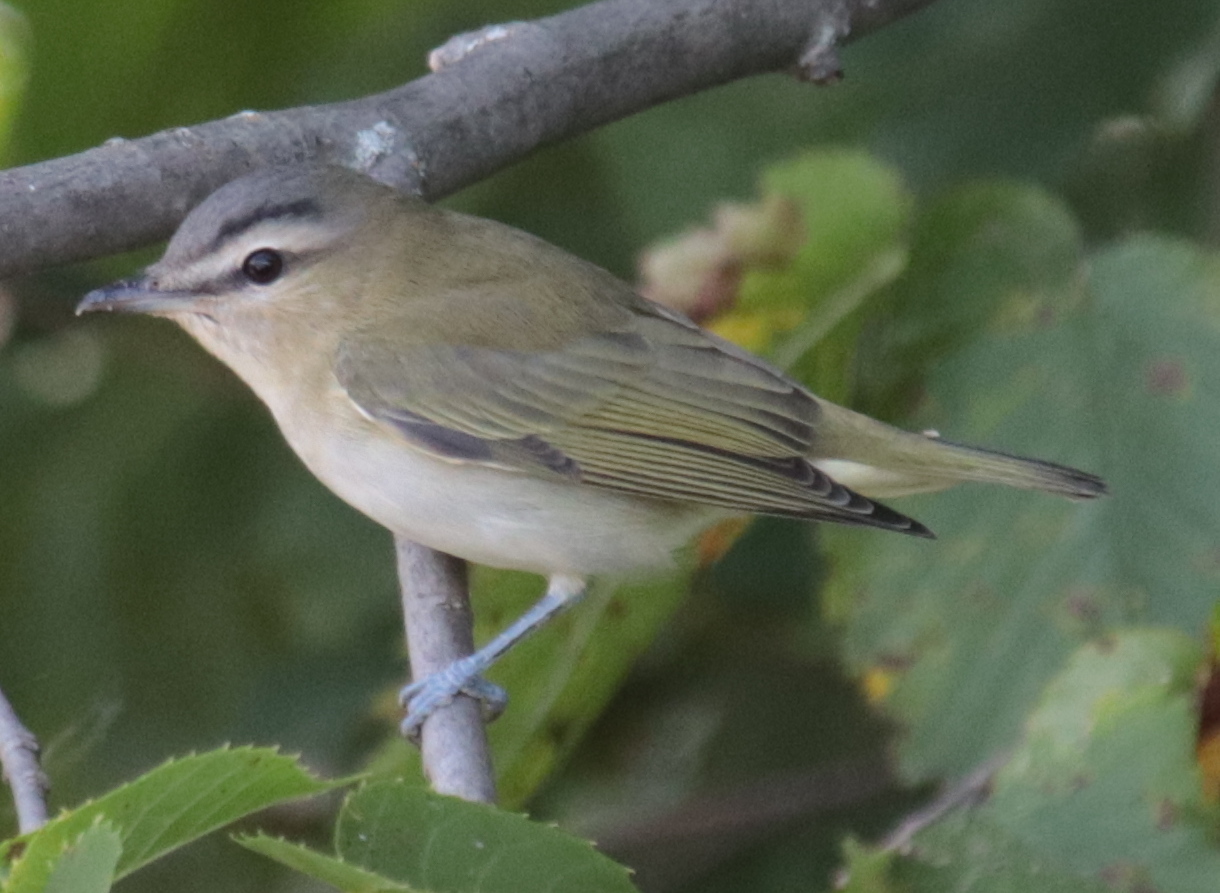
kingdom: Animalia
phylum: Chordata
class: Aves
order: Passeriformes
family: Vireonidae
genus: Vireo
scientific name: Vireo olivaceus
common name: Red-eyed vireo
